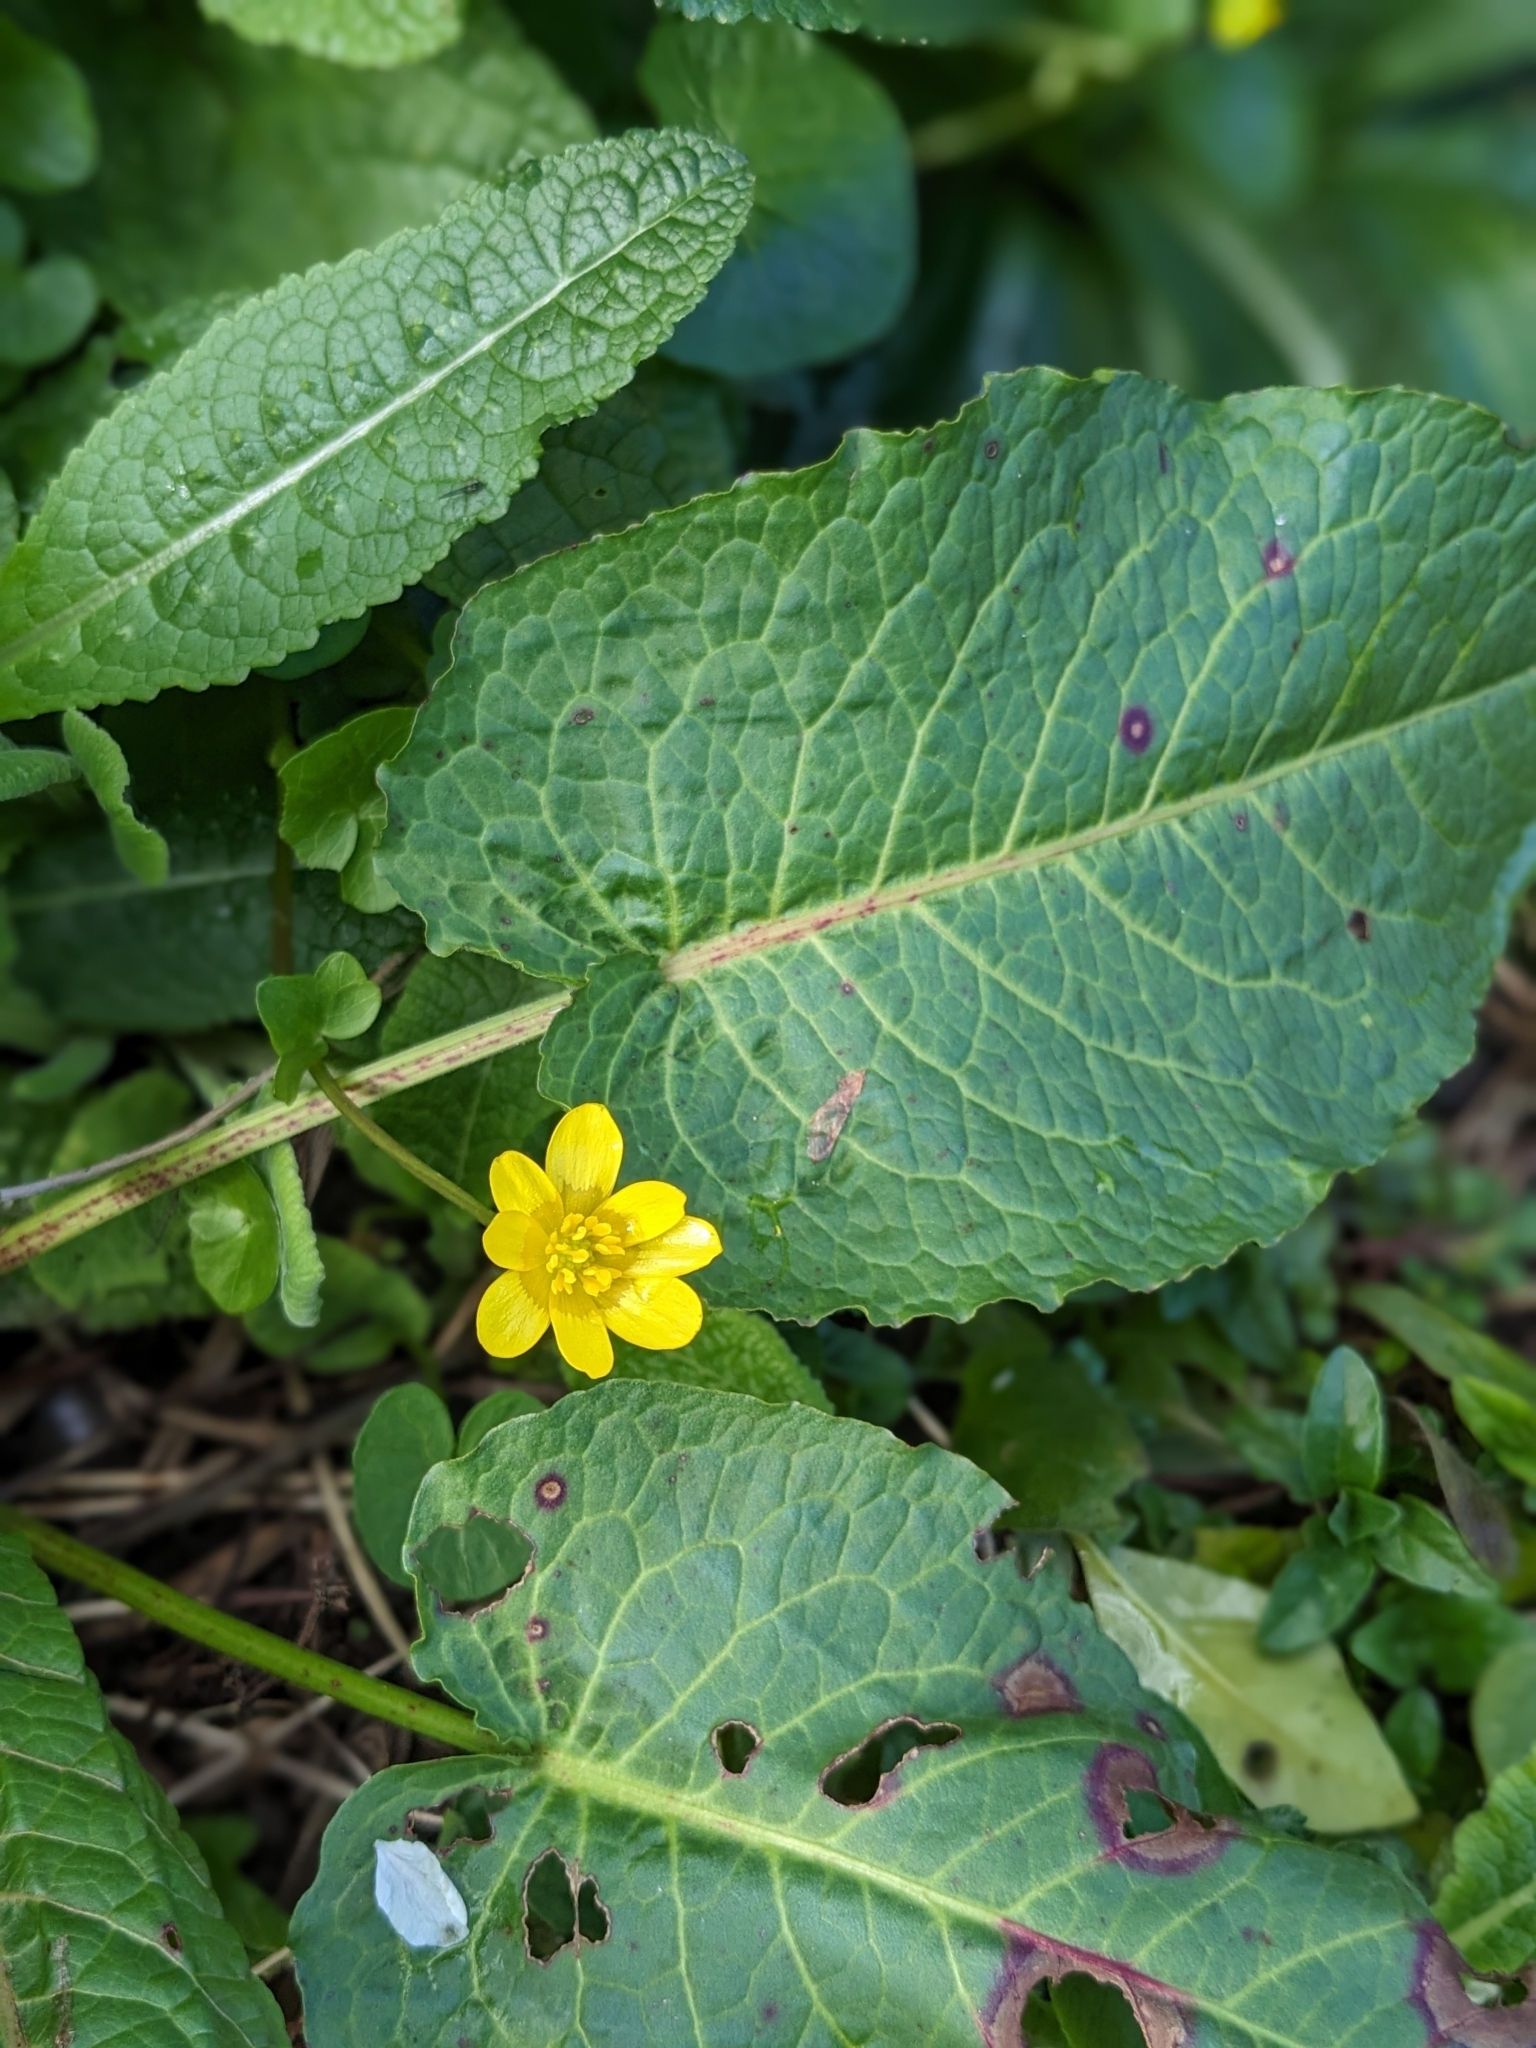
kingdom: Plantae
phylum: Tracheophyta
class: Magnoliopsida
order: Ranunculales
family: Ranunculaceae
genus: Ficaria
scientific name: Ficaria verna
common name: Lesser celandine
